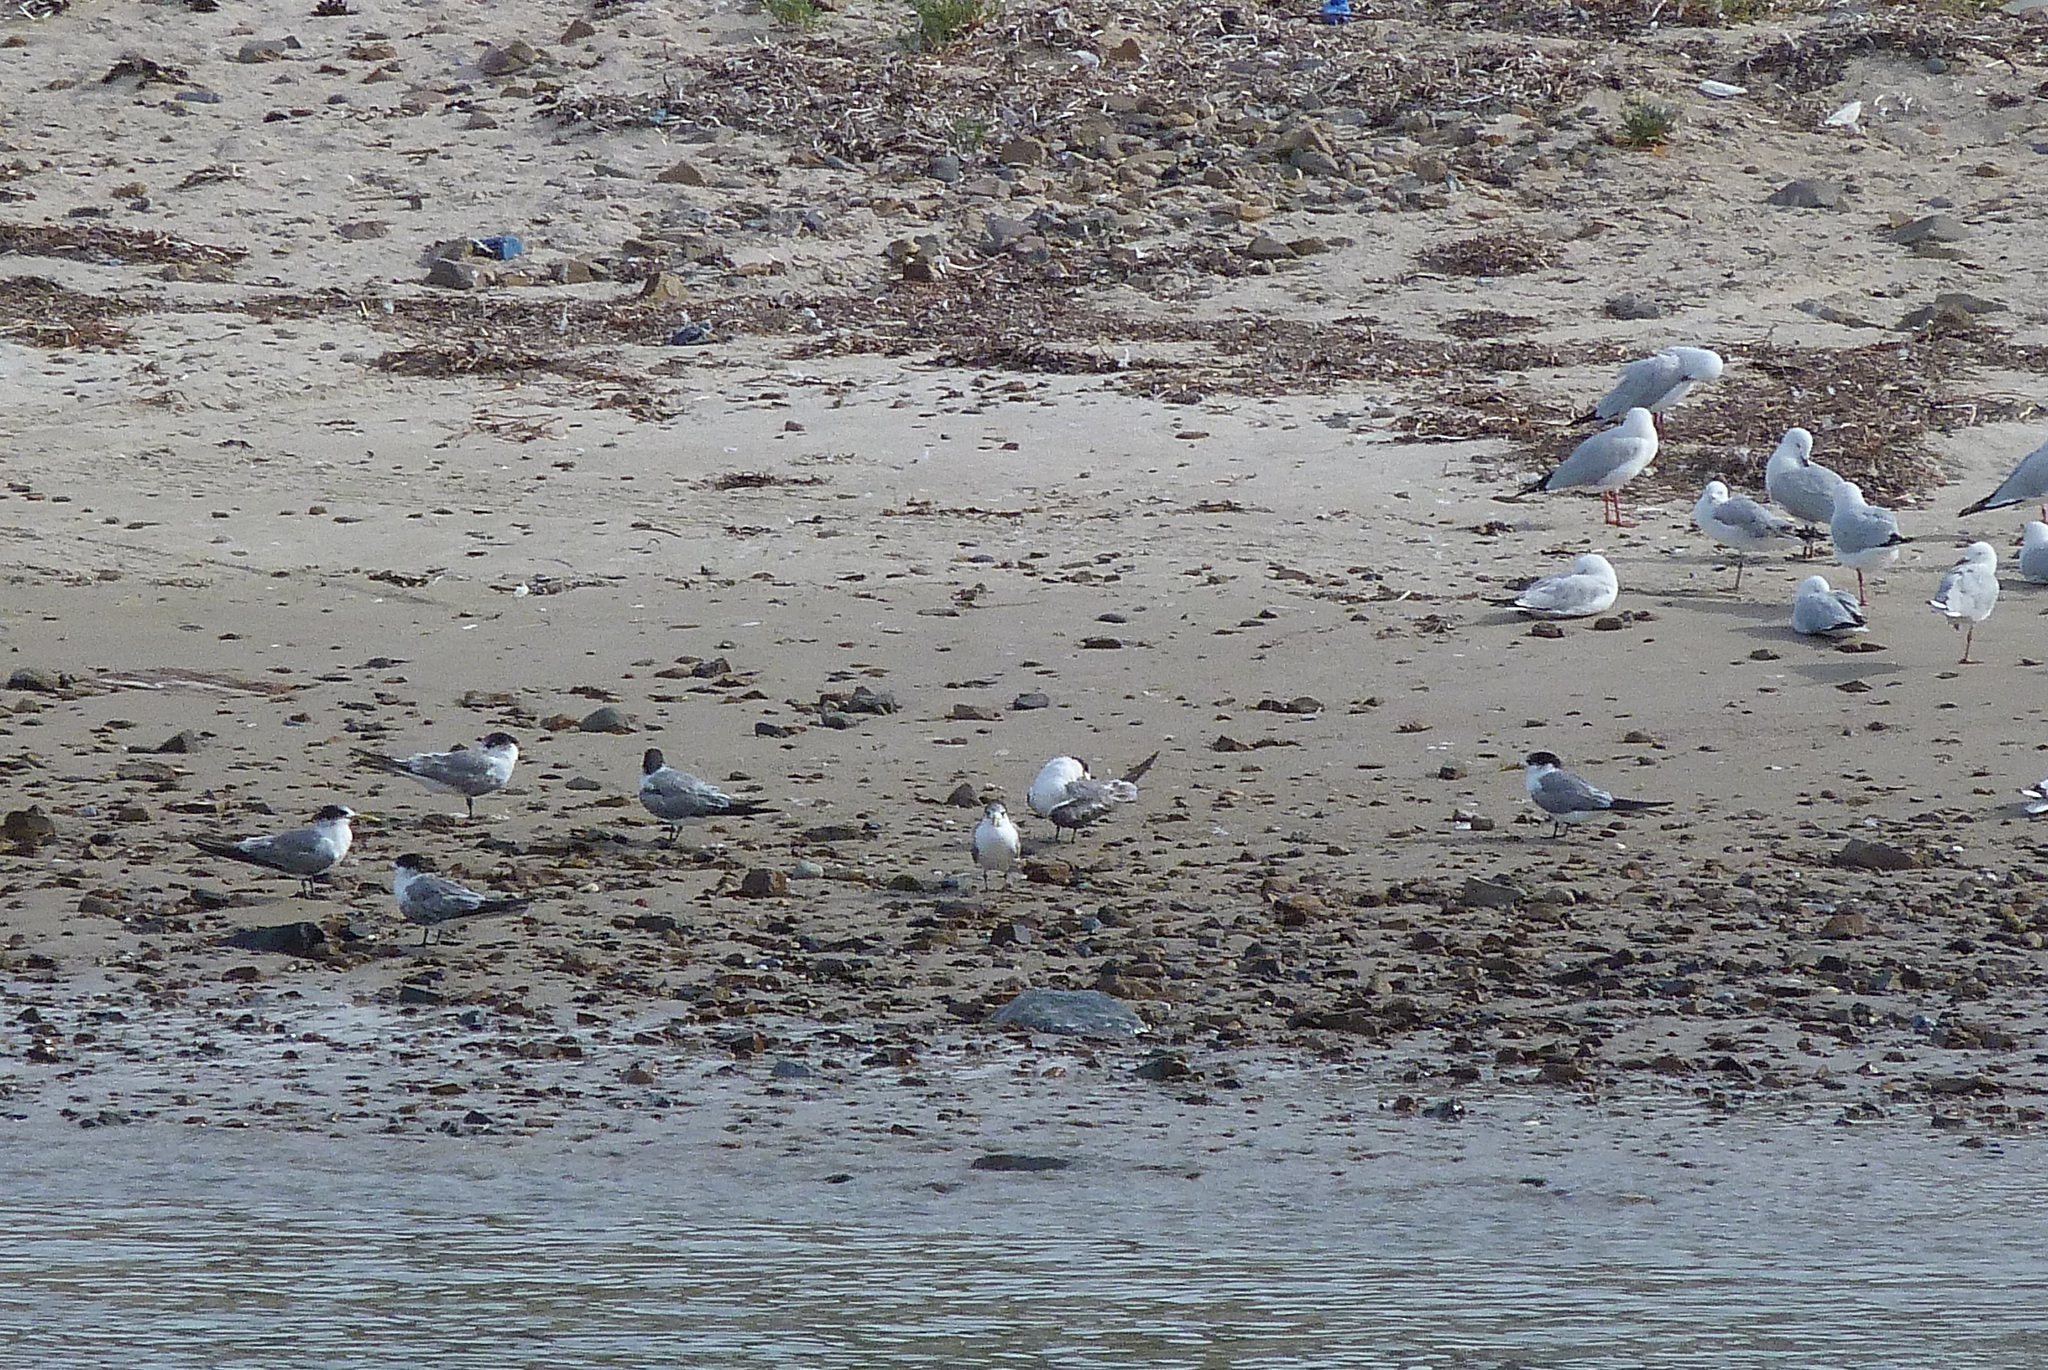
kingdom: Animalia
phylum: Chordata
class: Aves
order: Charadriiformes
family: Laridae
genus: Thalasseus
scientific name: Thalasseus bergii
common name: Greater crested tern
